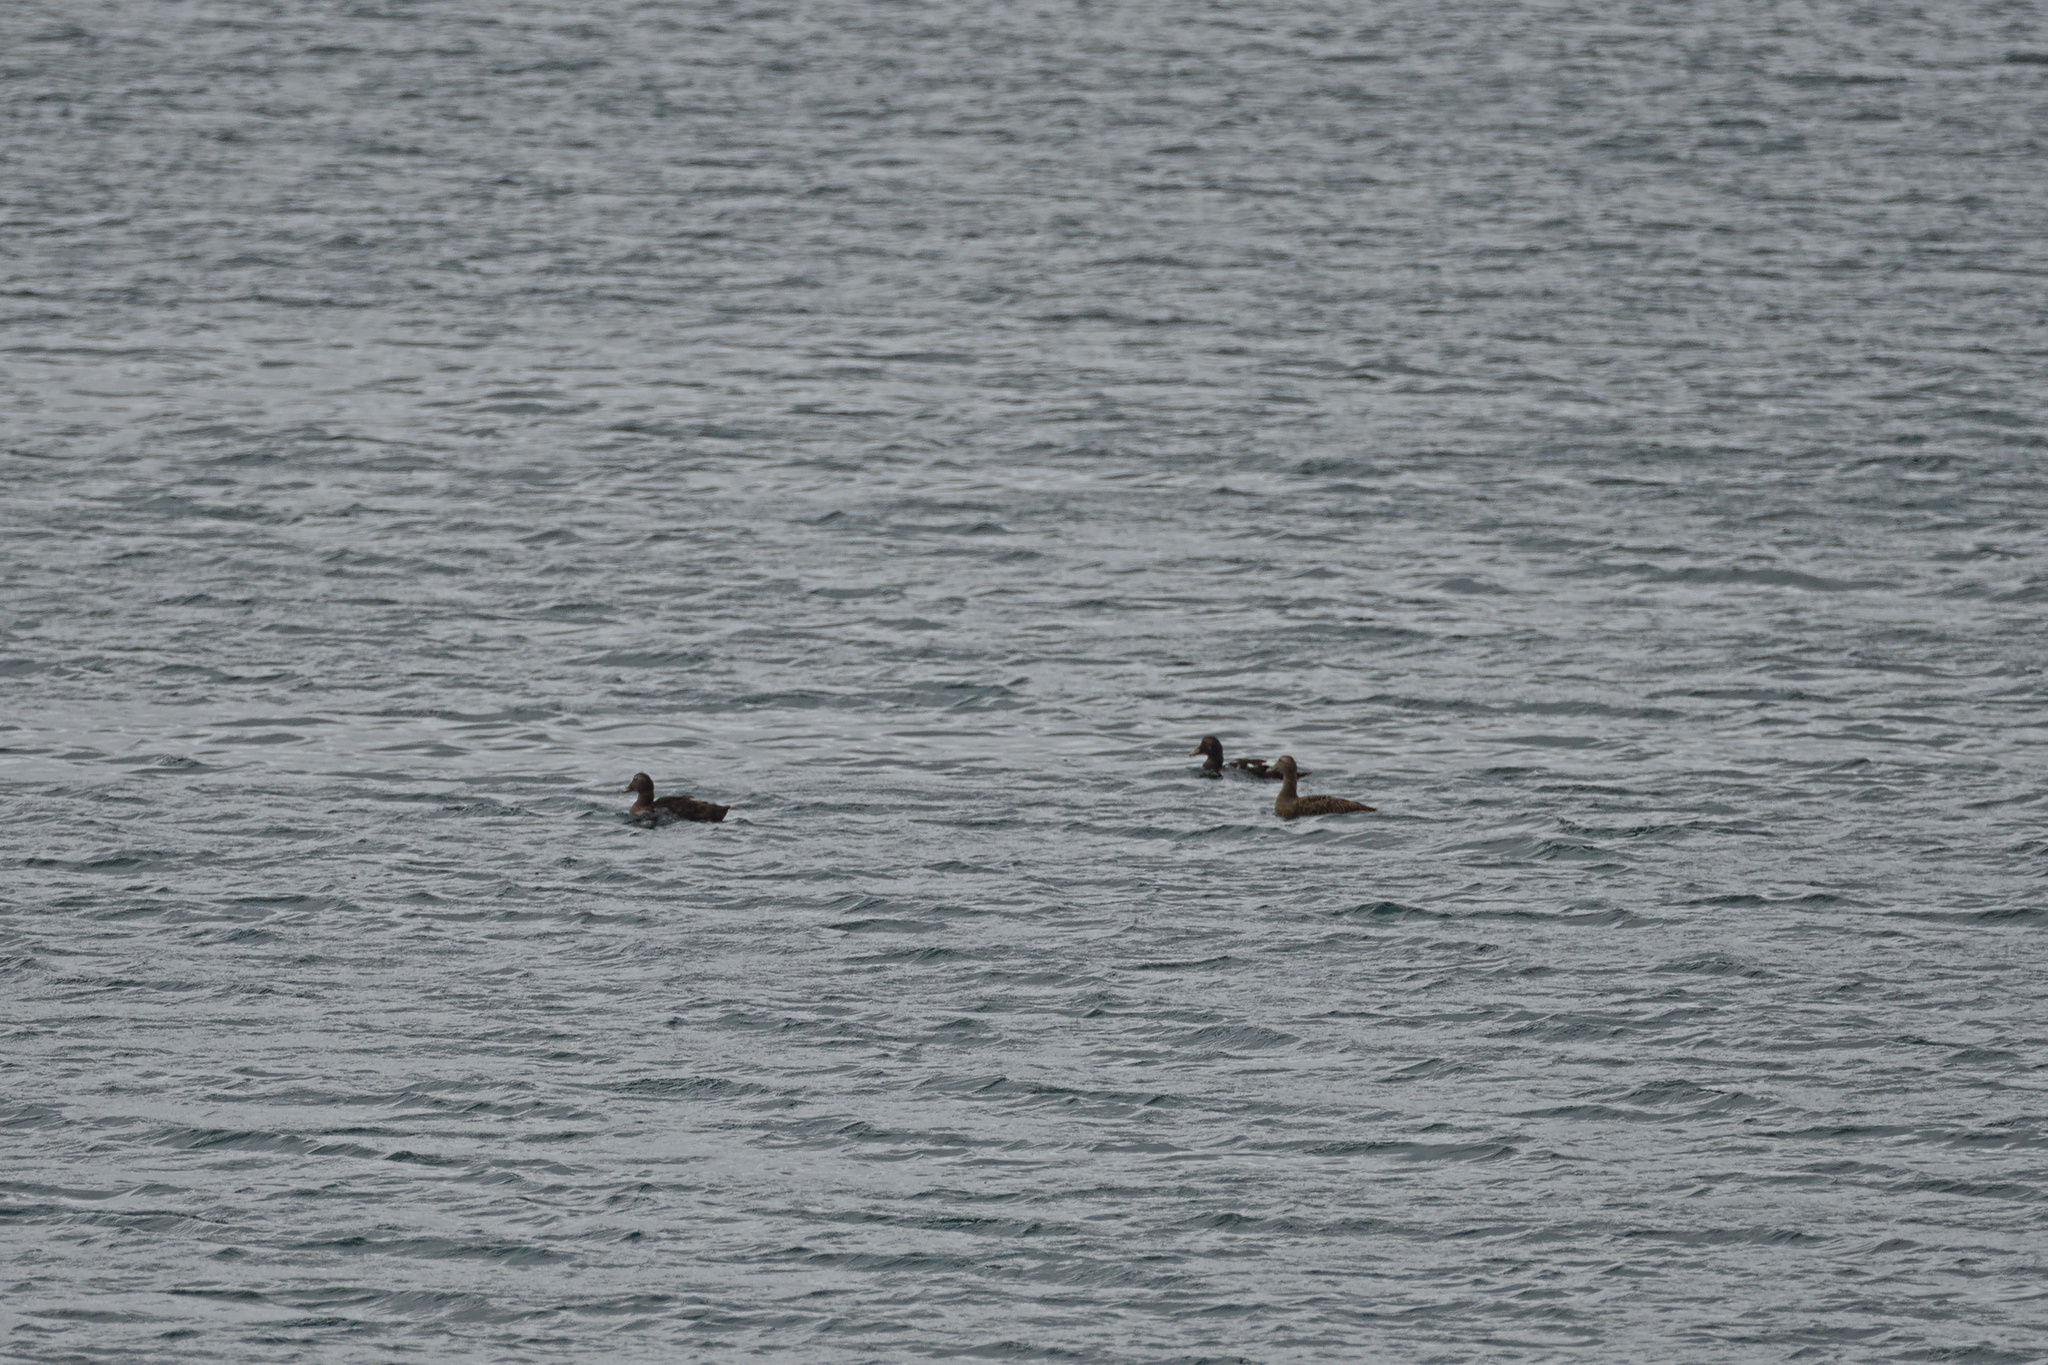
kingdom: Animalia
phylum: Chordata
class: Aves
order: Anseriformes
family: Anatidae
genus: Somateria
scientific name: Somateria mollissima
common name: Common eider
